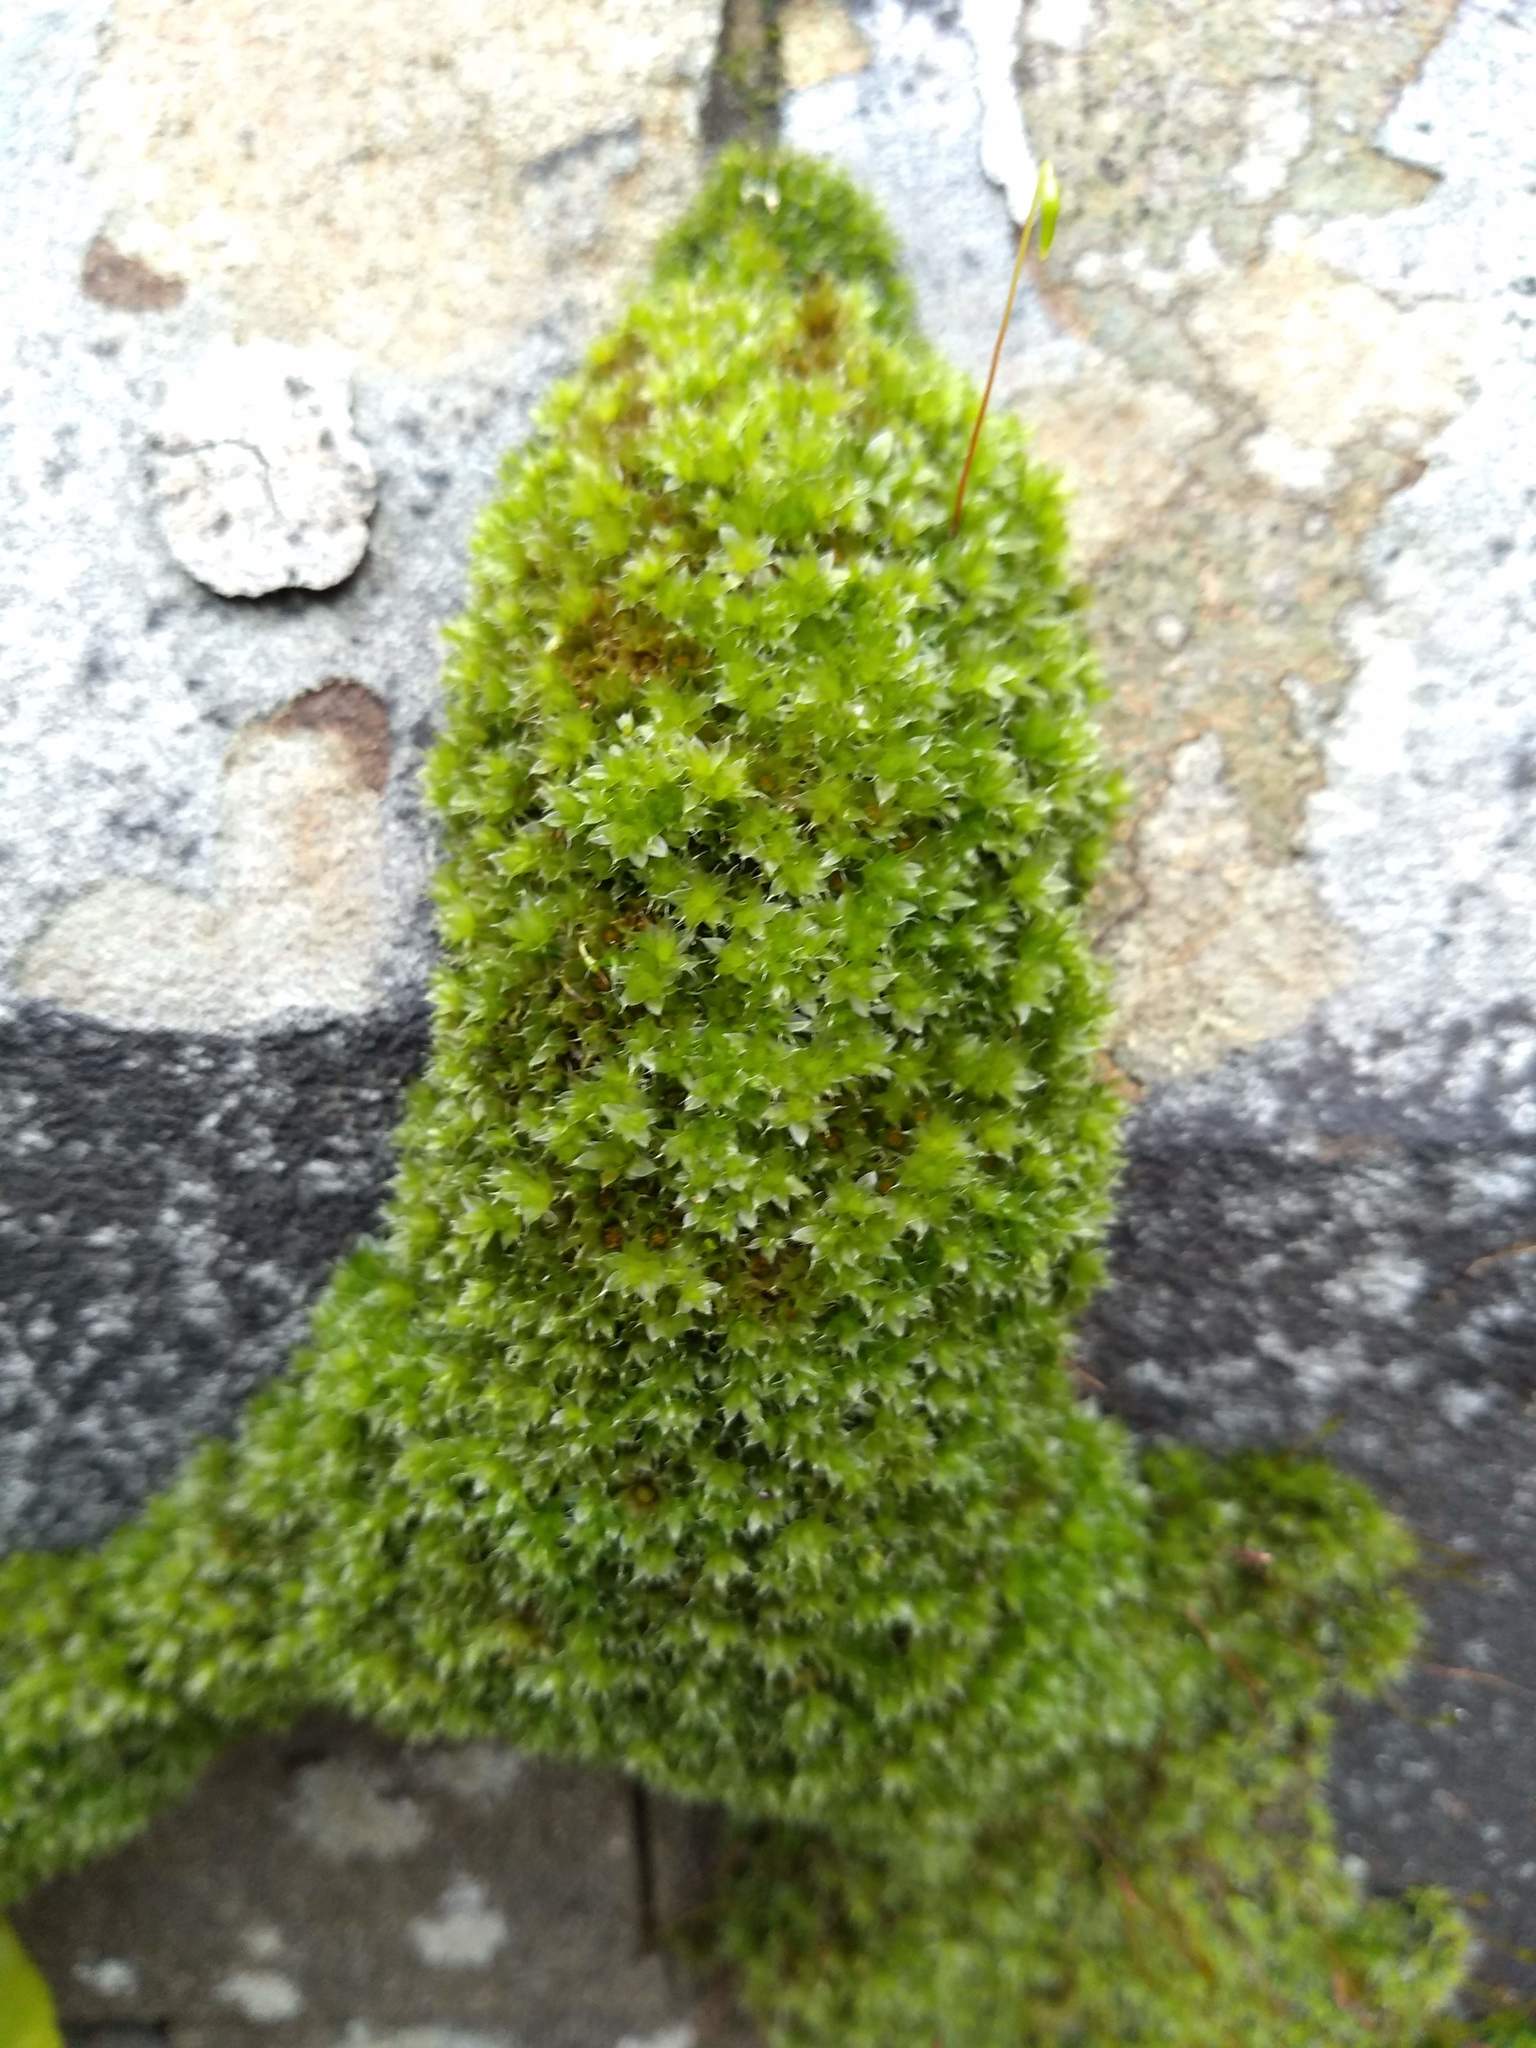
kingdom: Plantae
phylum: Bryophyta
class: Bryopsida
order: Bryales
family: Bryaceae
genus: Rosulabryum
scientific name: Rosulabryum capillare
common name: Capillary thread-moss
